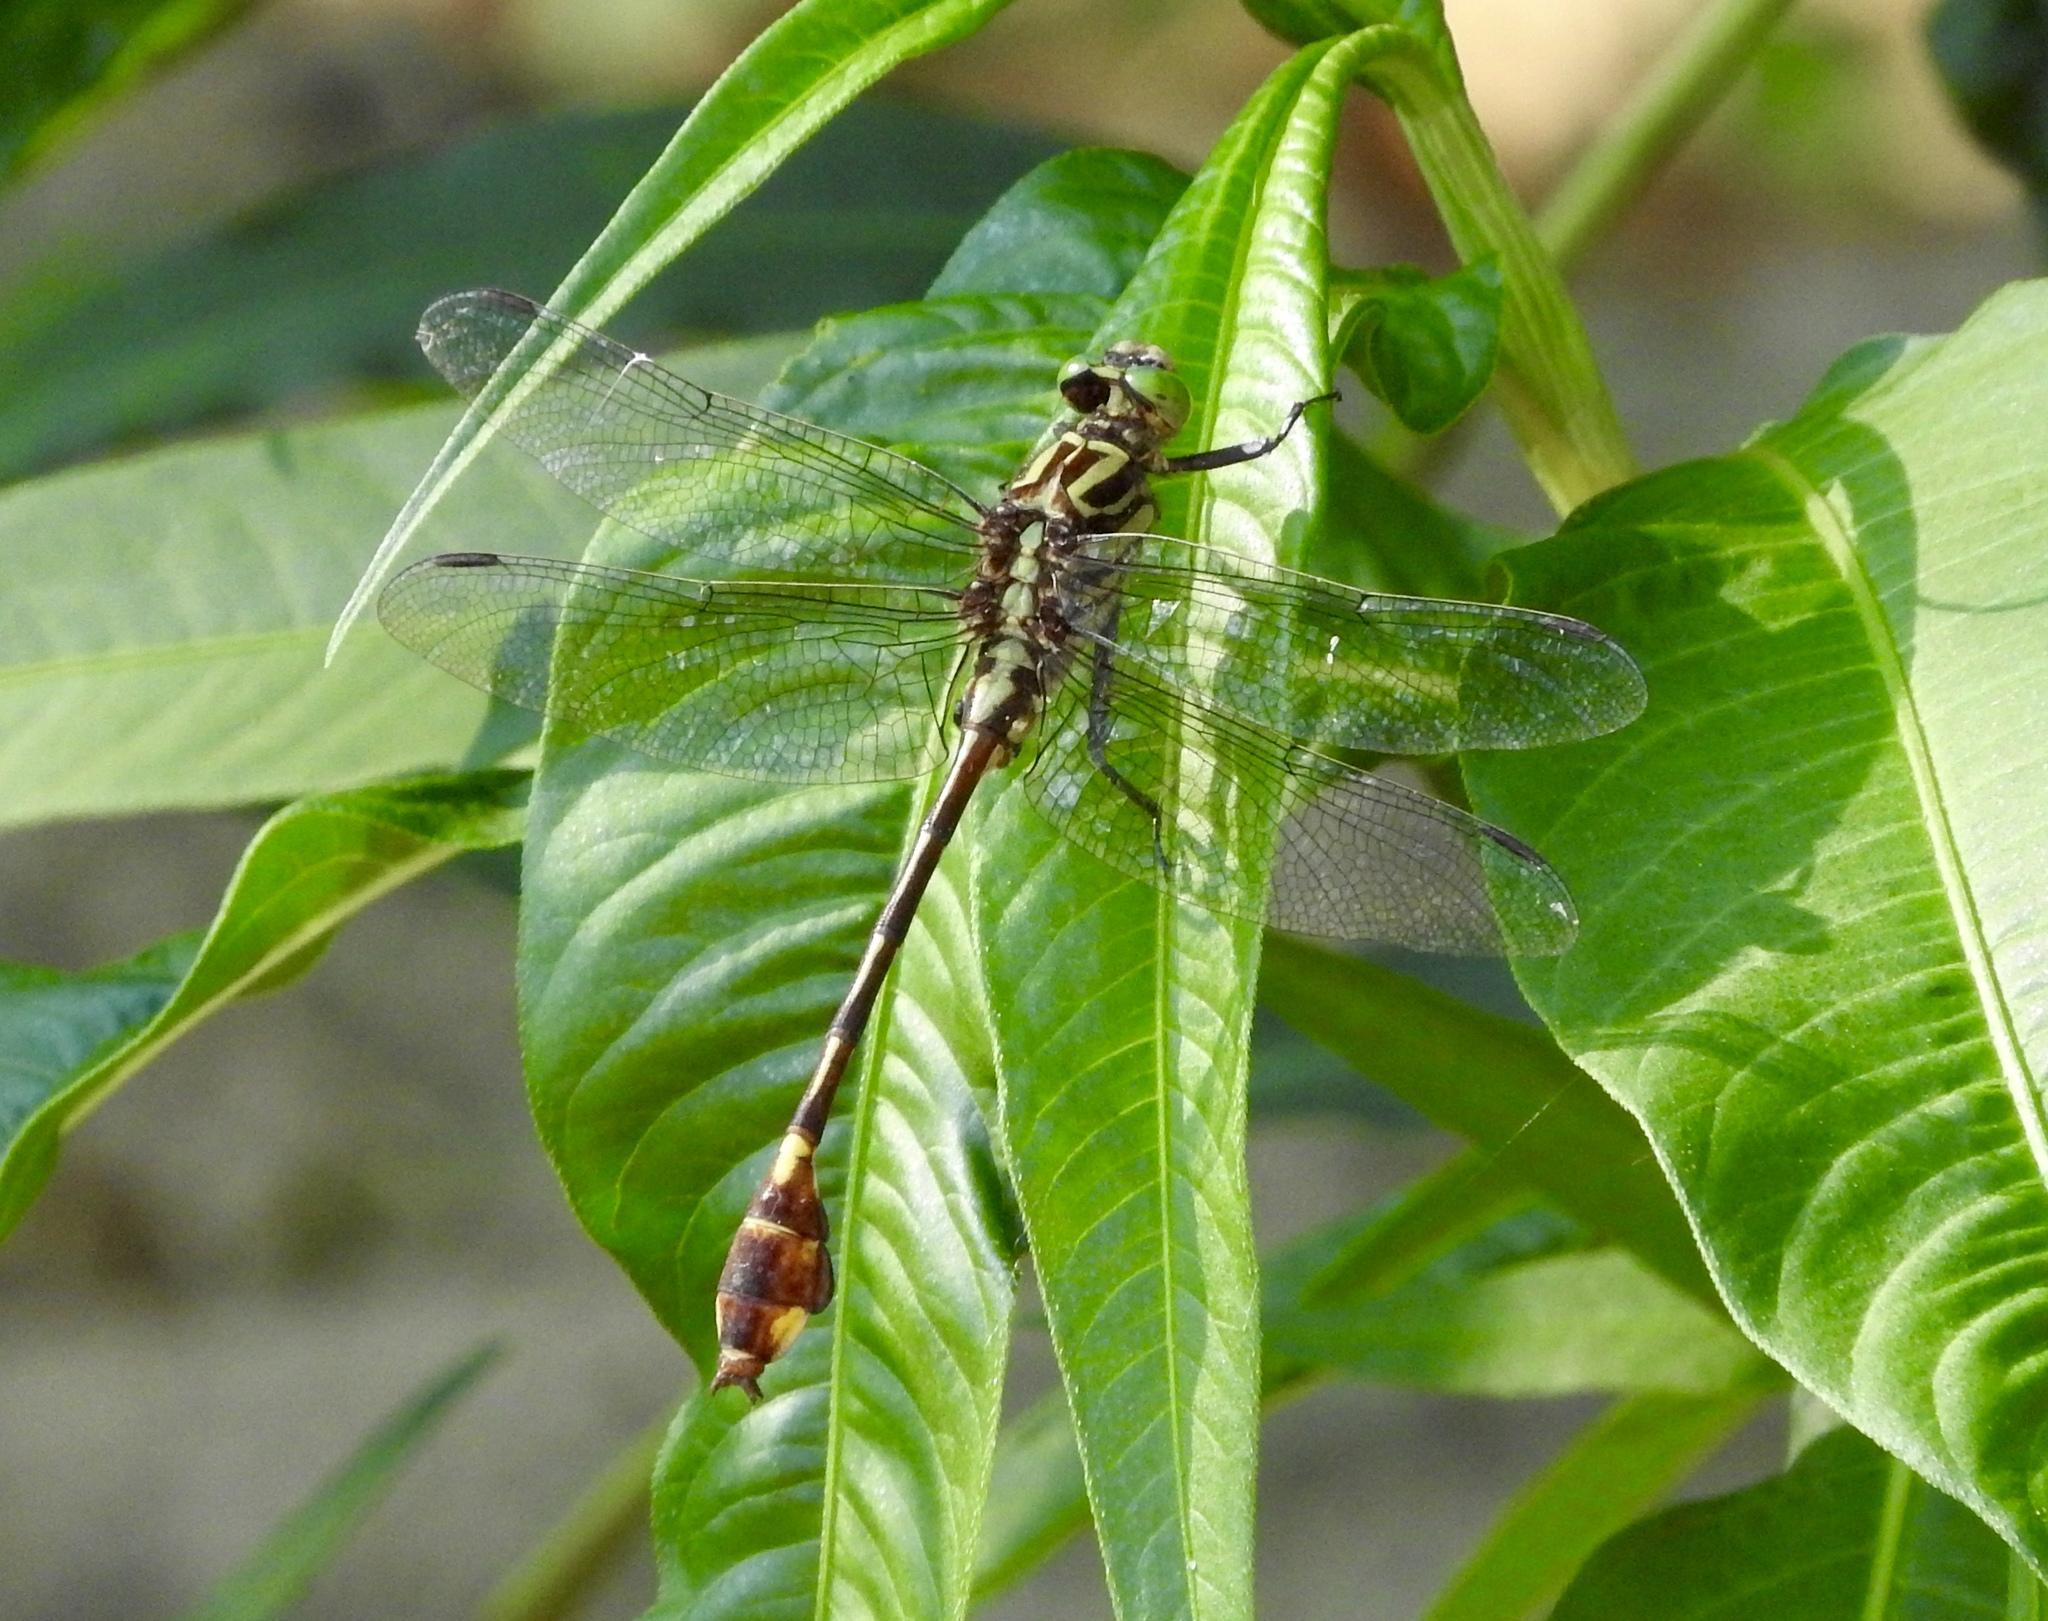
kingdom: Animalia
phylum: Arthropoda
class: Insecta
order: Odonata
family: Gomphidae
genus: Gomphurus
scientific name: Gomphurus vastus
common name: Cobra clubtail
